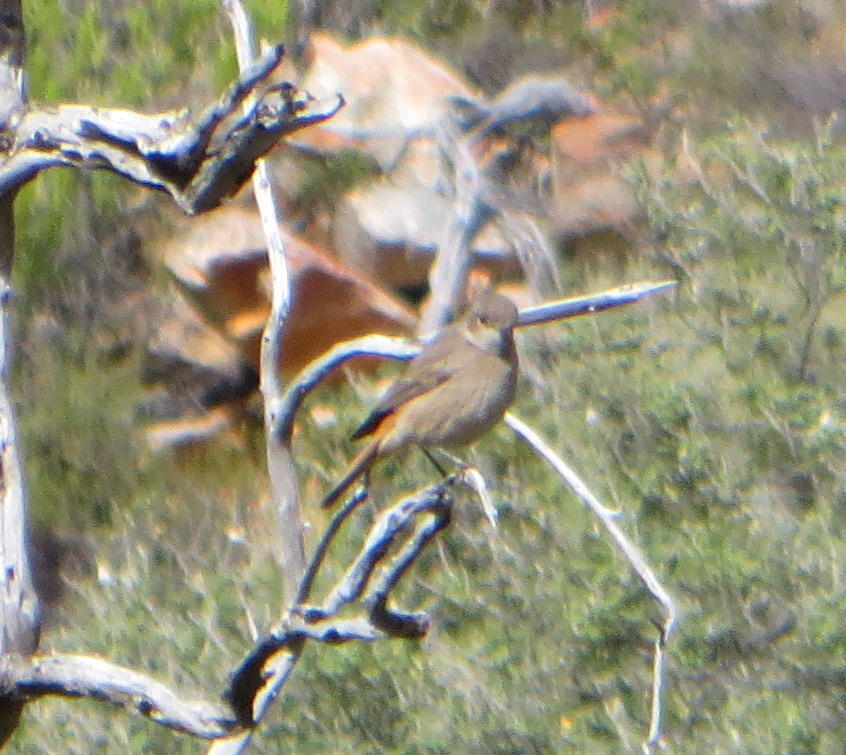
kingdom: Animalia
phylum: Chordata
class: Aves
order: Passeriformes
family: Muscicapidae
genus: Oenanthe
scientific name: Oenanthe familiaris
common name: Familiar chat
